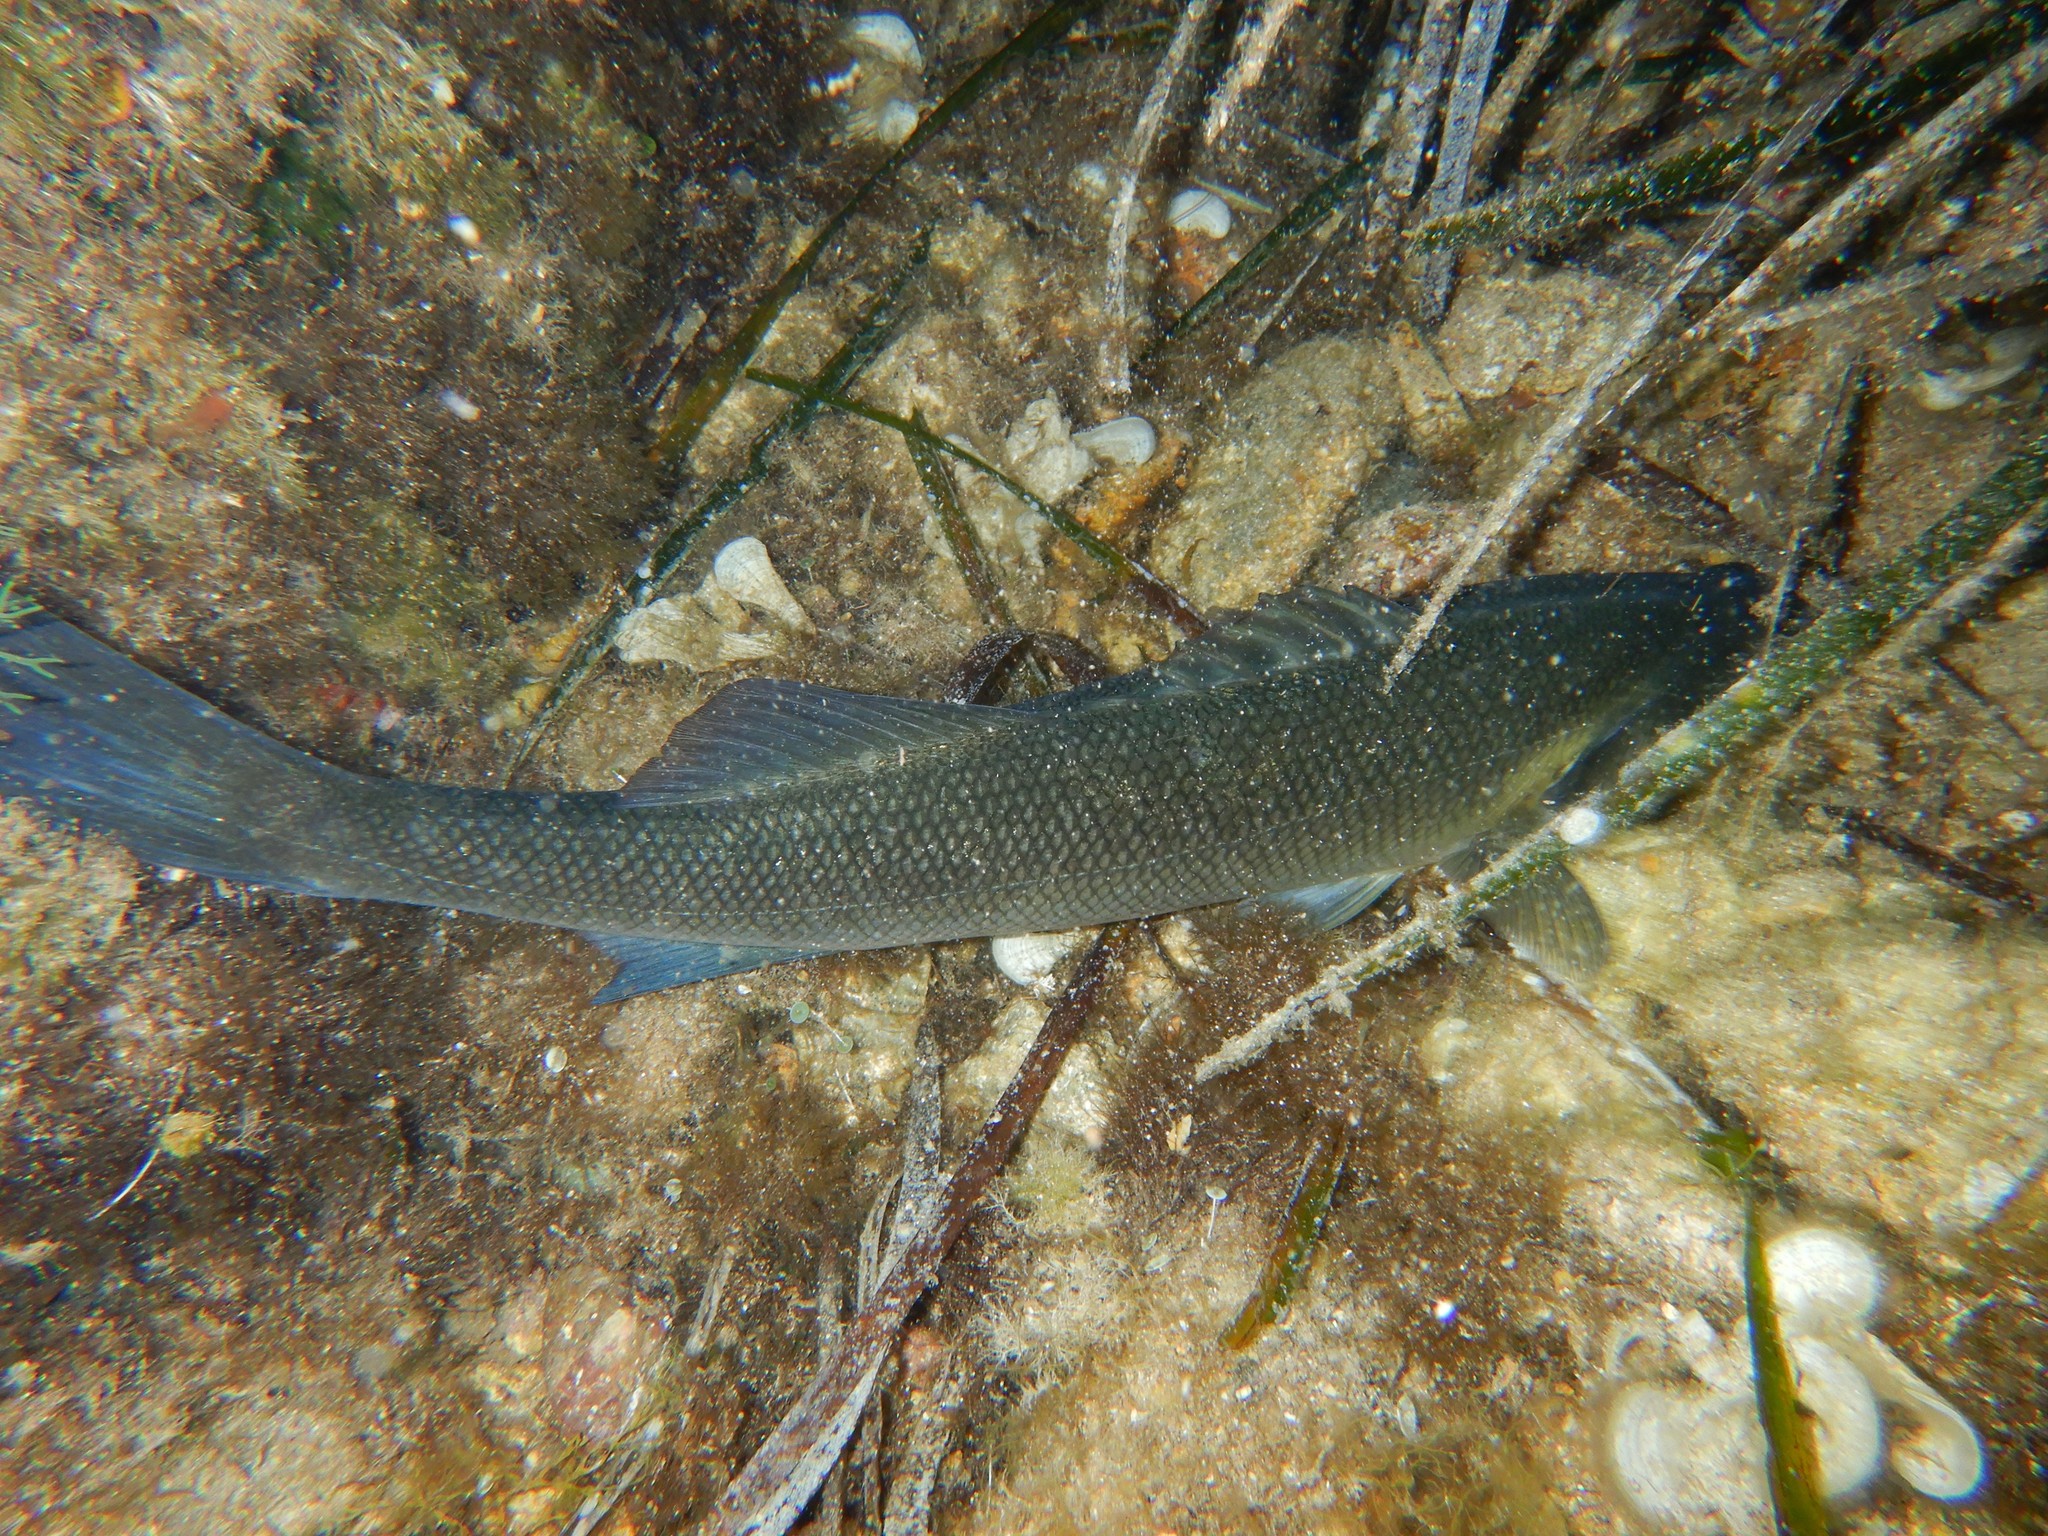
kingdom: Animalia
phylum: Chordata
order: Perciformes
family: Moronidae
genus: Dicentrarchus
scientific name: Dicentrarchus labrax
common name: European seabass
